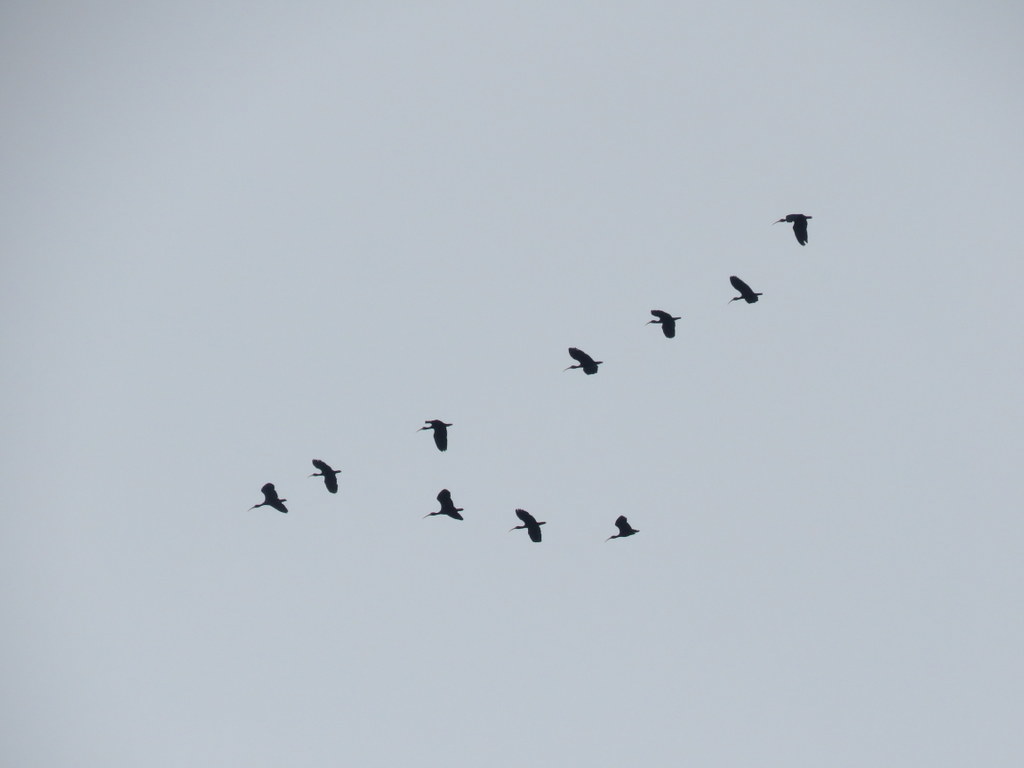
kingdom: Animalia
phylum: Chordata
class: Aves
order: Pelecaniformes
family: Threskiornithidae
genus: Phimosus
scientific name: Phimosus infuscatus
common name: Bare-faced ibis
